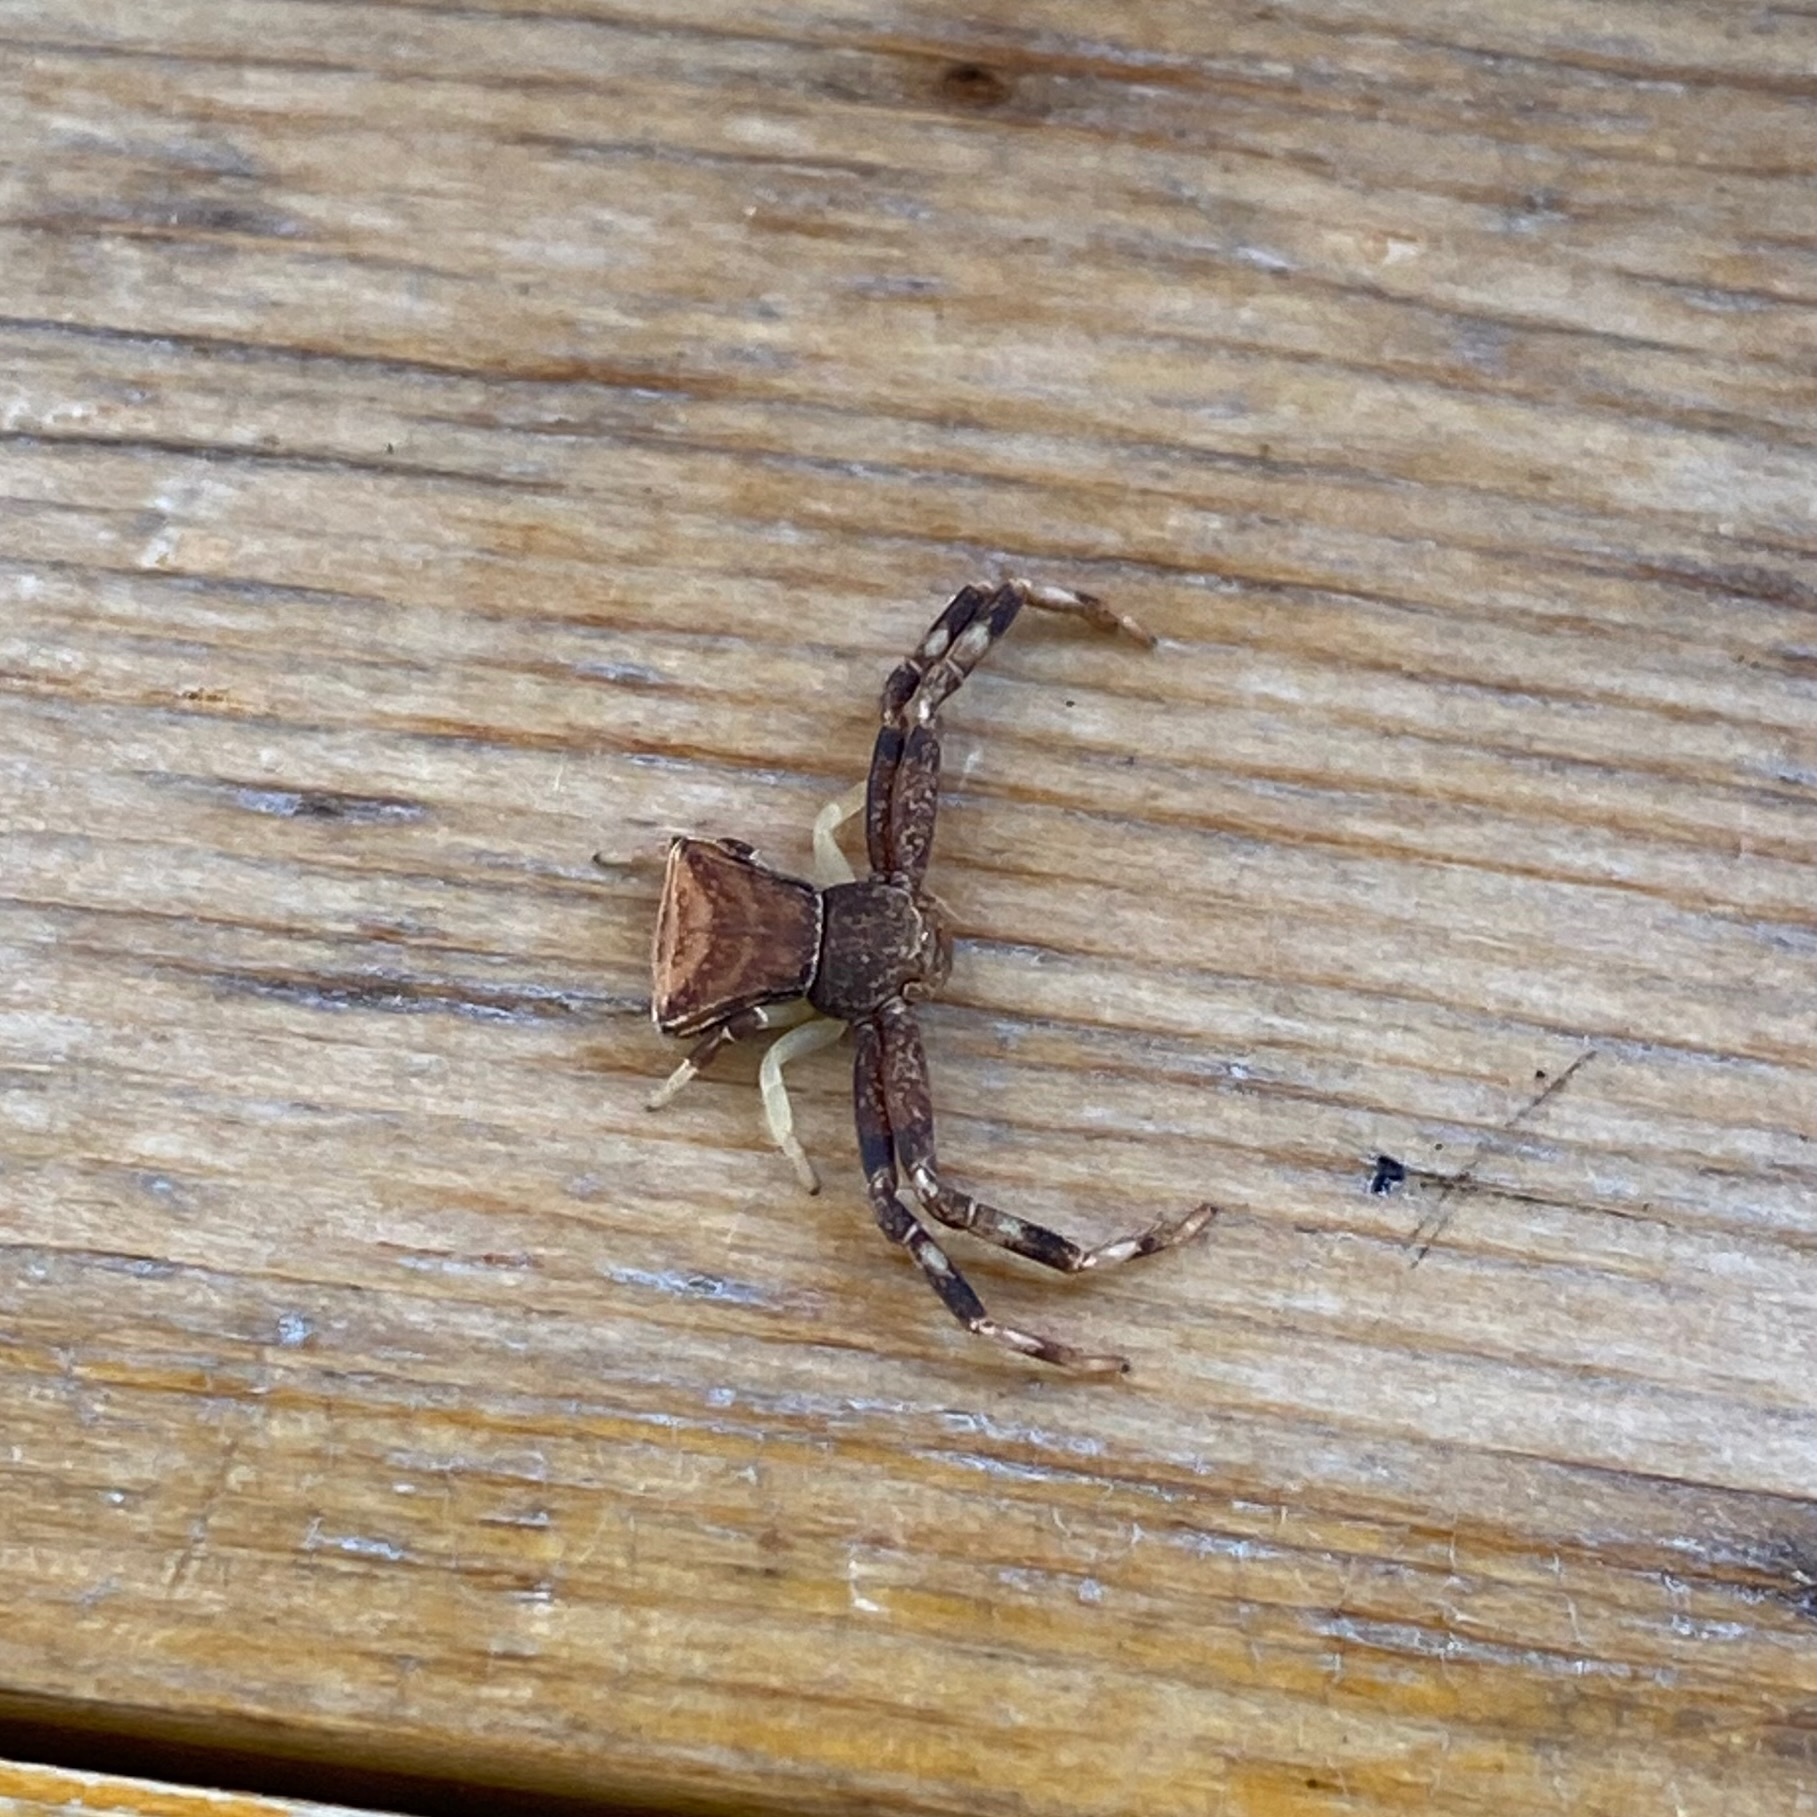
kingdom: Animalia
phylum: Arthropoda
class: Arachnida
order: Araneae
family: Thomisidae
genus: Pistius
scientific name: Pistius undulatus
